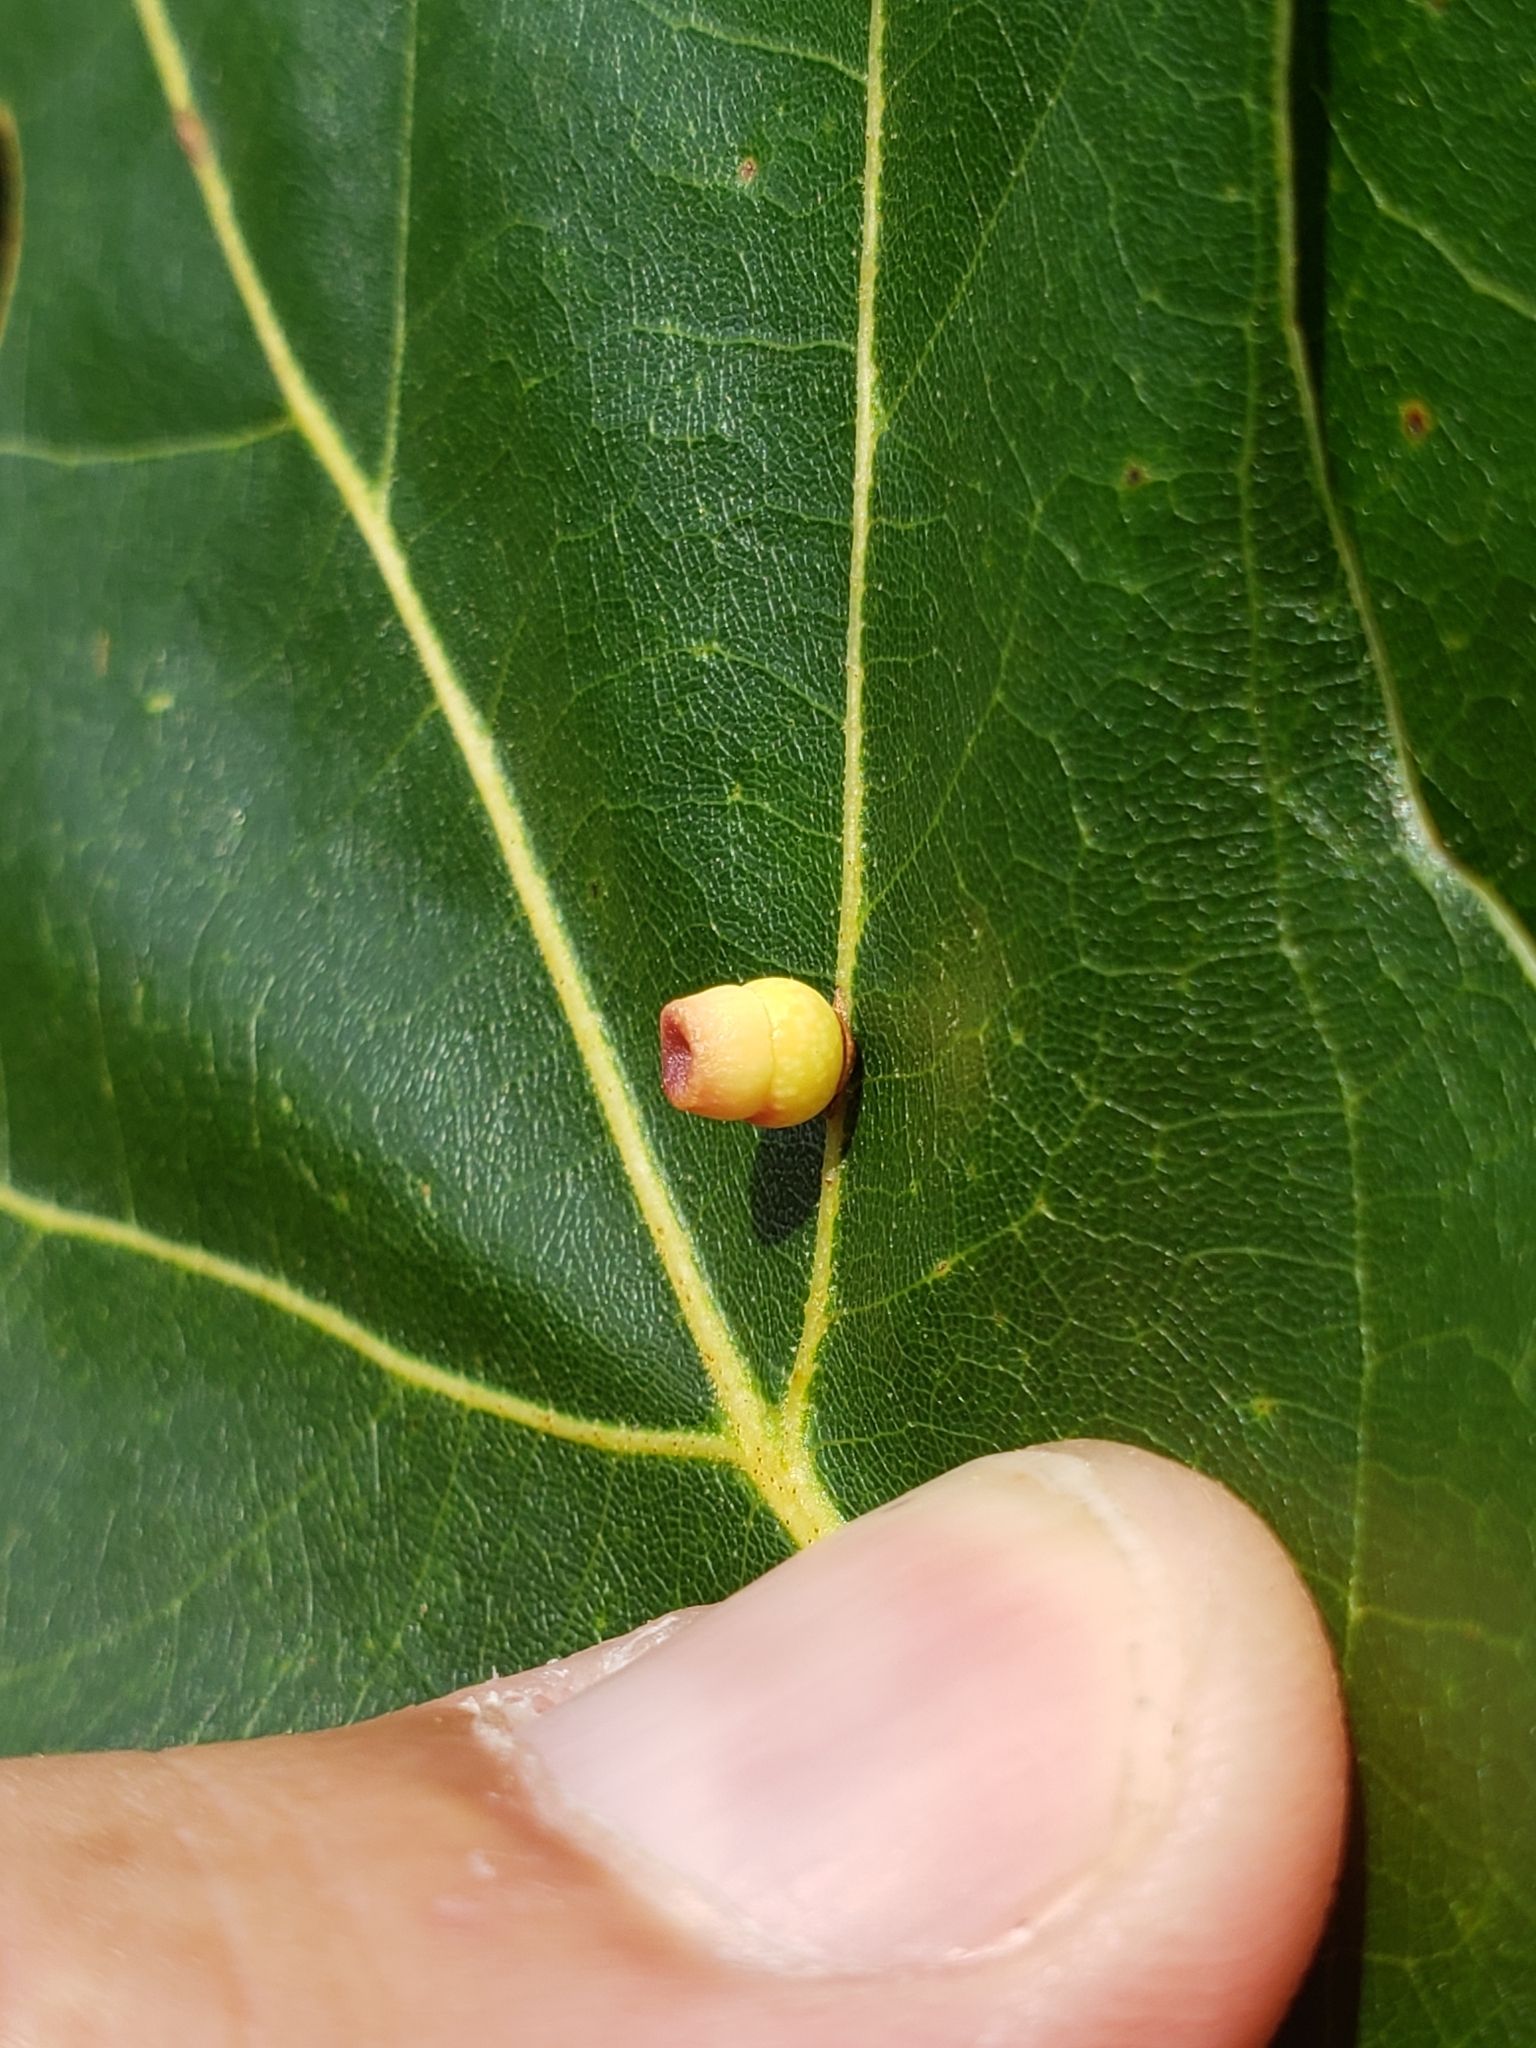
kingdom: Animalia
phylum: Arthropoda
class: Insecta
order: Hymenoptera
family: Cynipidae
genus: Kokkocynips
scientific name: Kokkocynips rileyi
